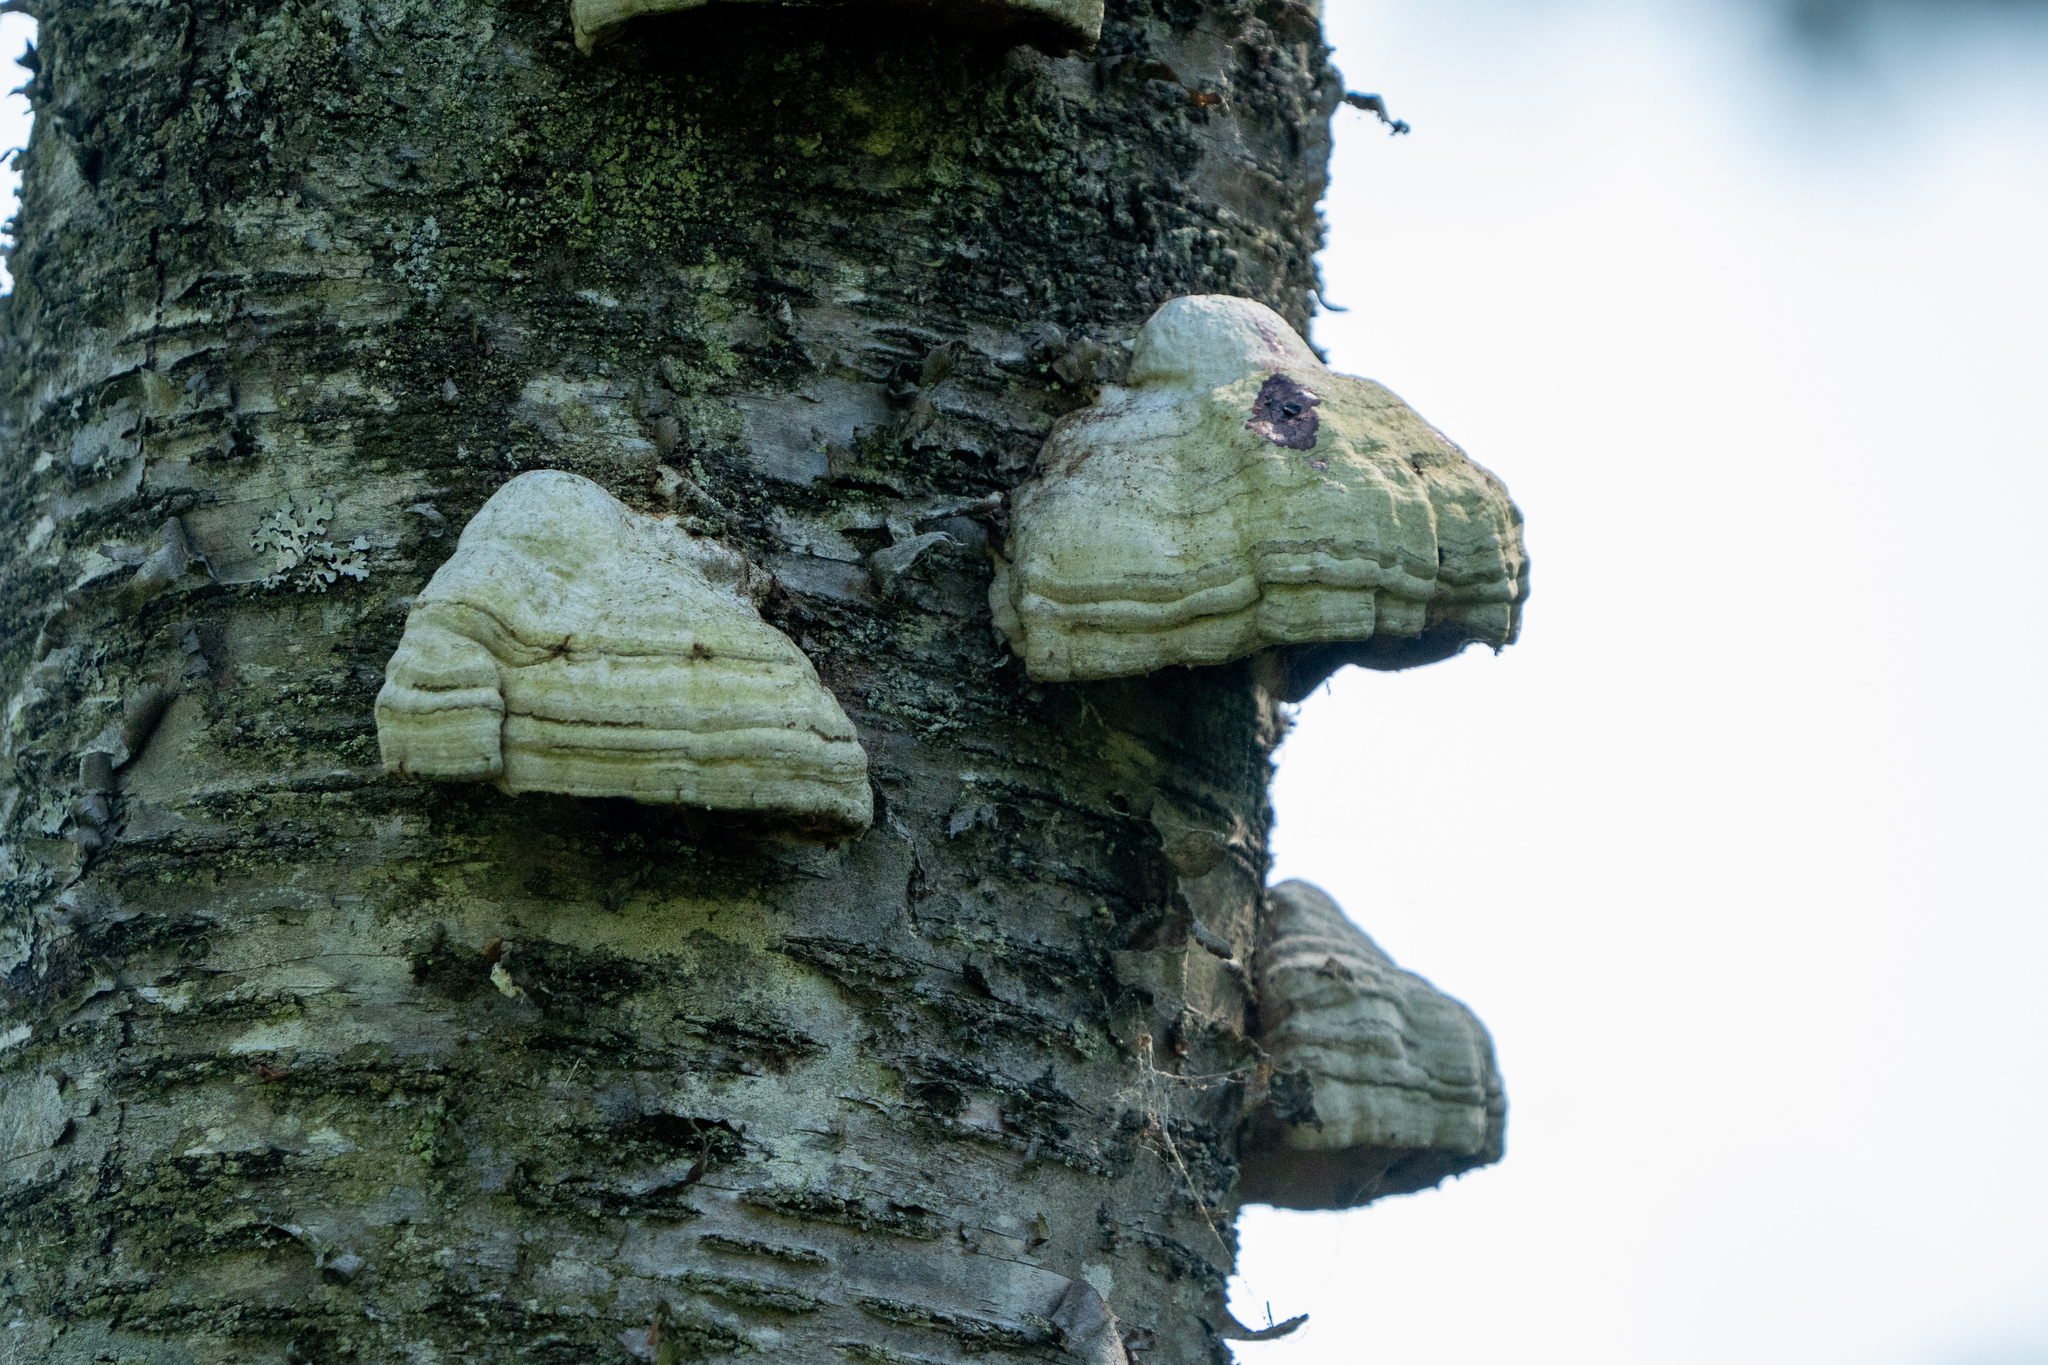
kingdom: Fungi
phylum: Basidiomycota
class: Agaricomycetes
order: Polyporales
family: Polyporaceae
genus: Fomes
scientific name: Fomes fomentarius
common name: Hoof fungus
